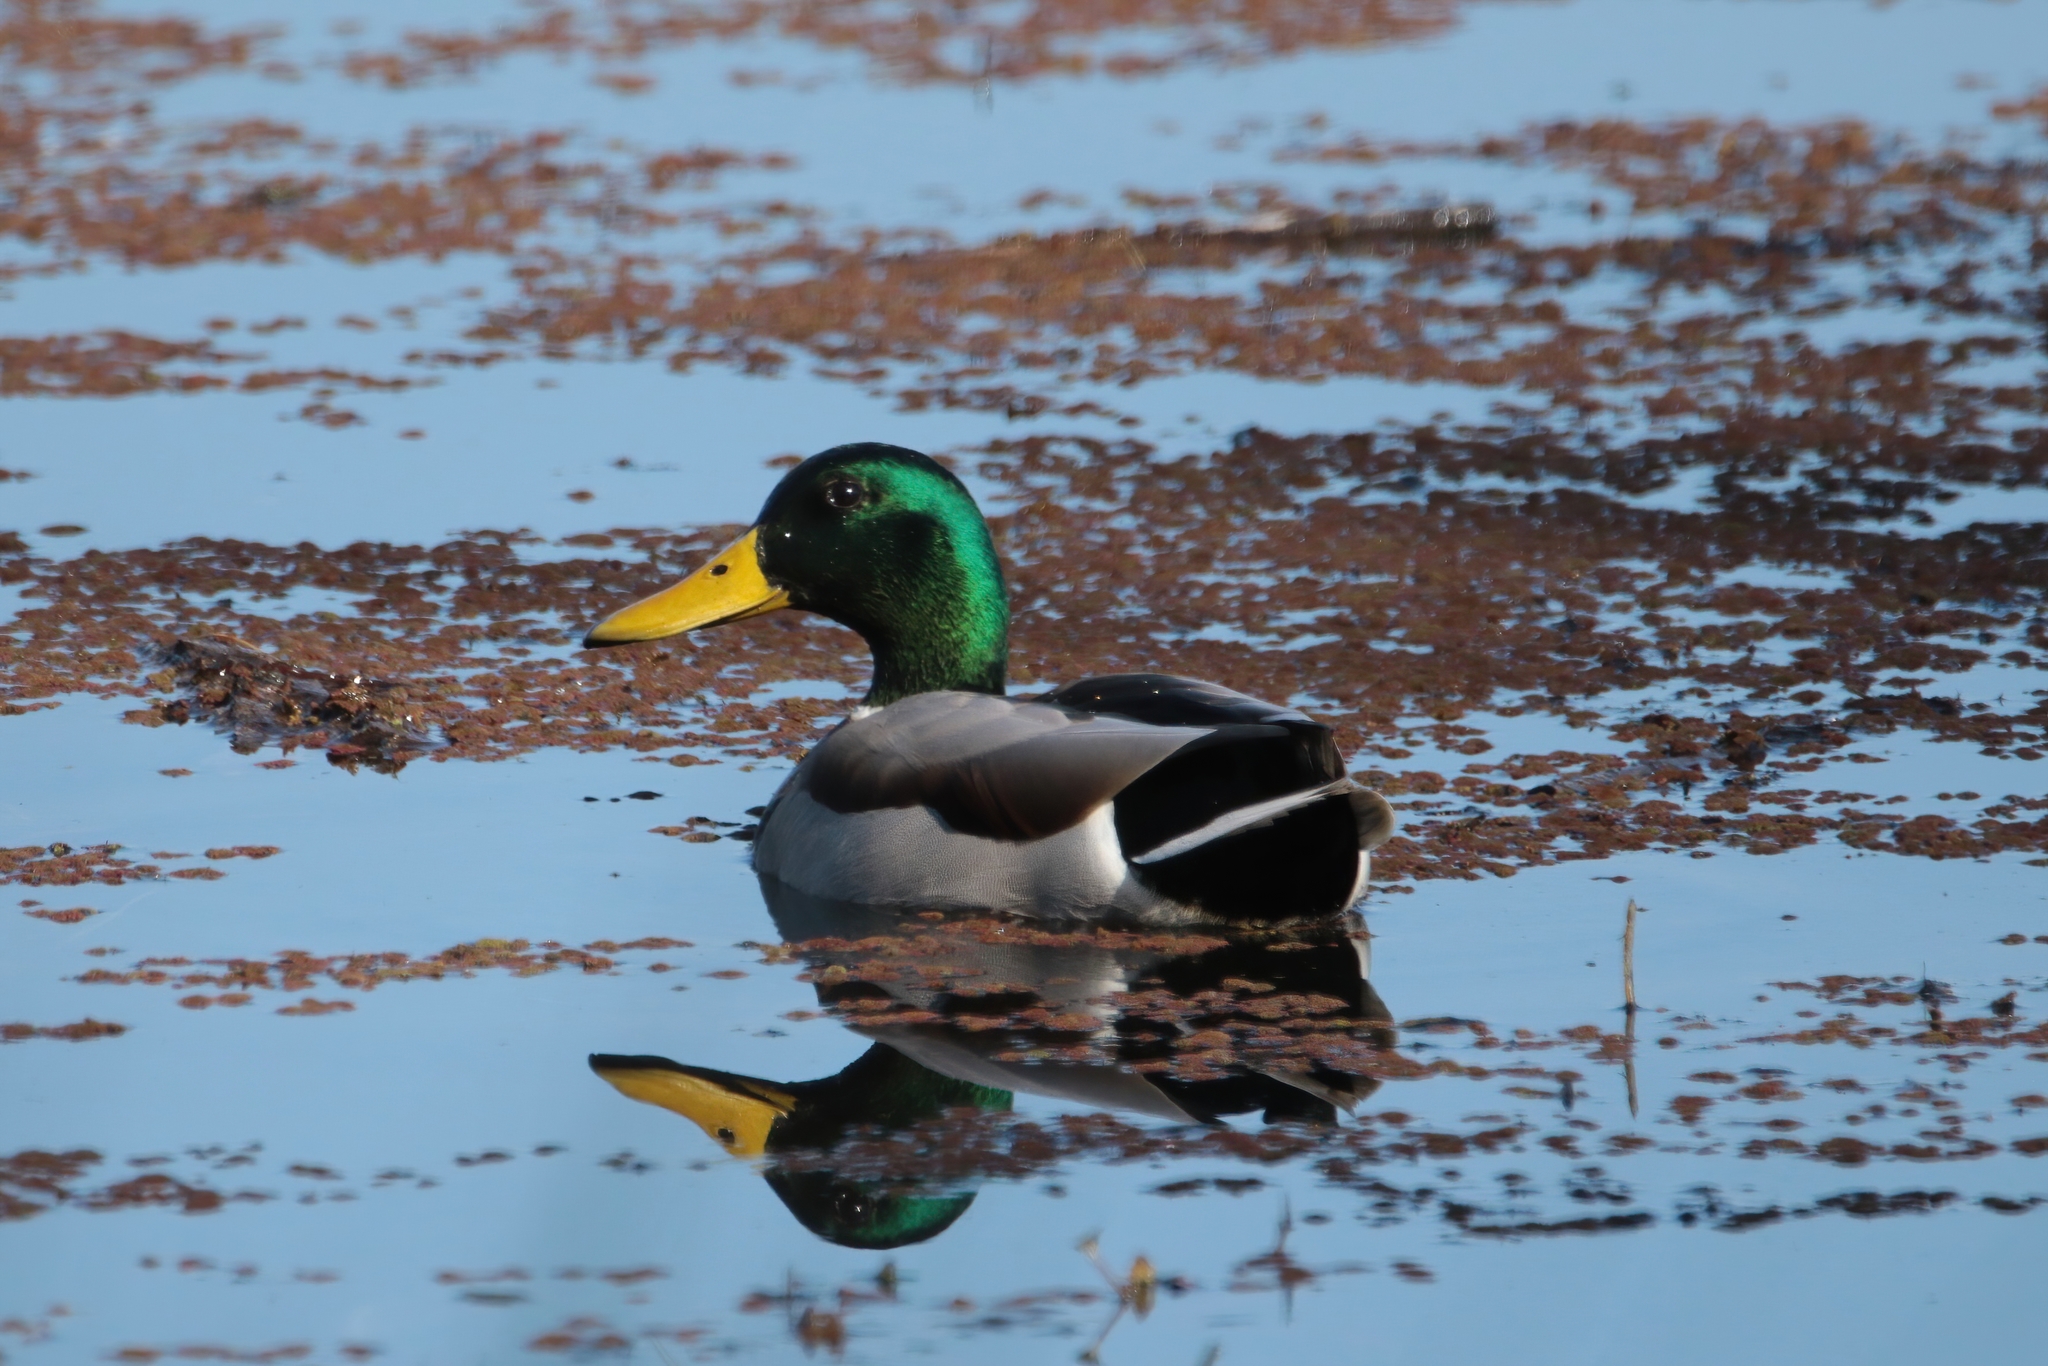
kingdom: Animalia
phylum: Chordata
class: Aves
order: Anseriformes
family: Anatidae
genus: Anas
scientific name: Anas platyrhynchos
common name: Mallard
